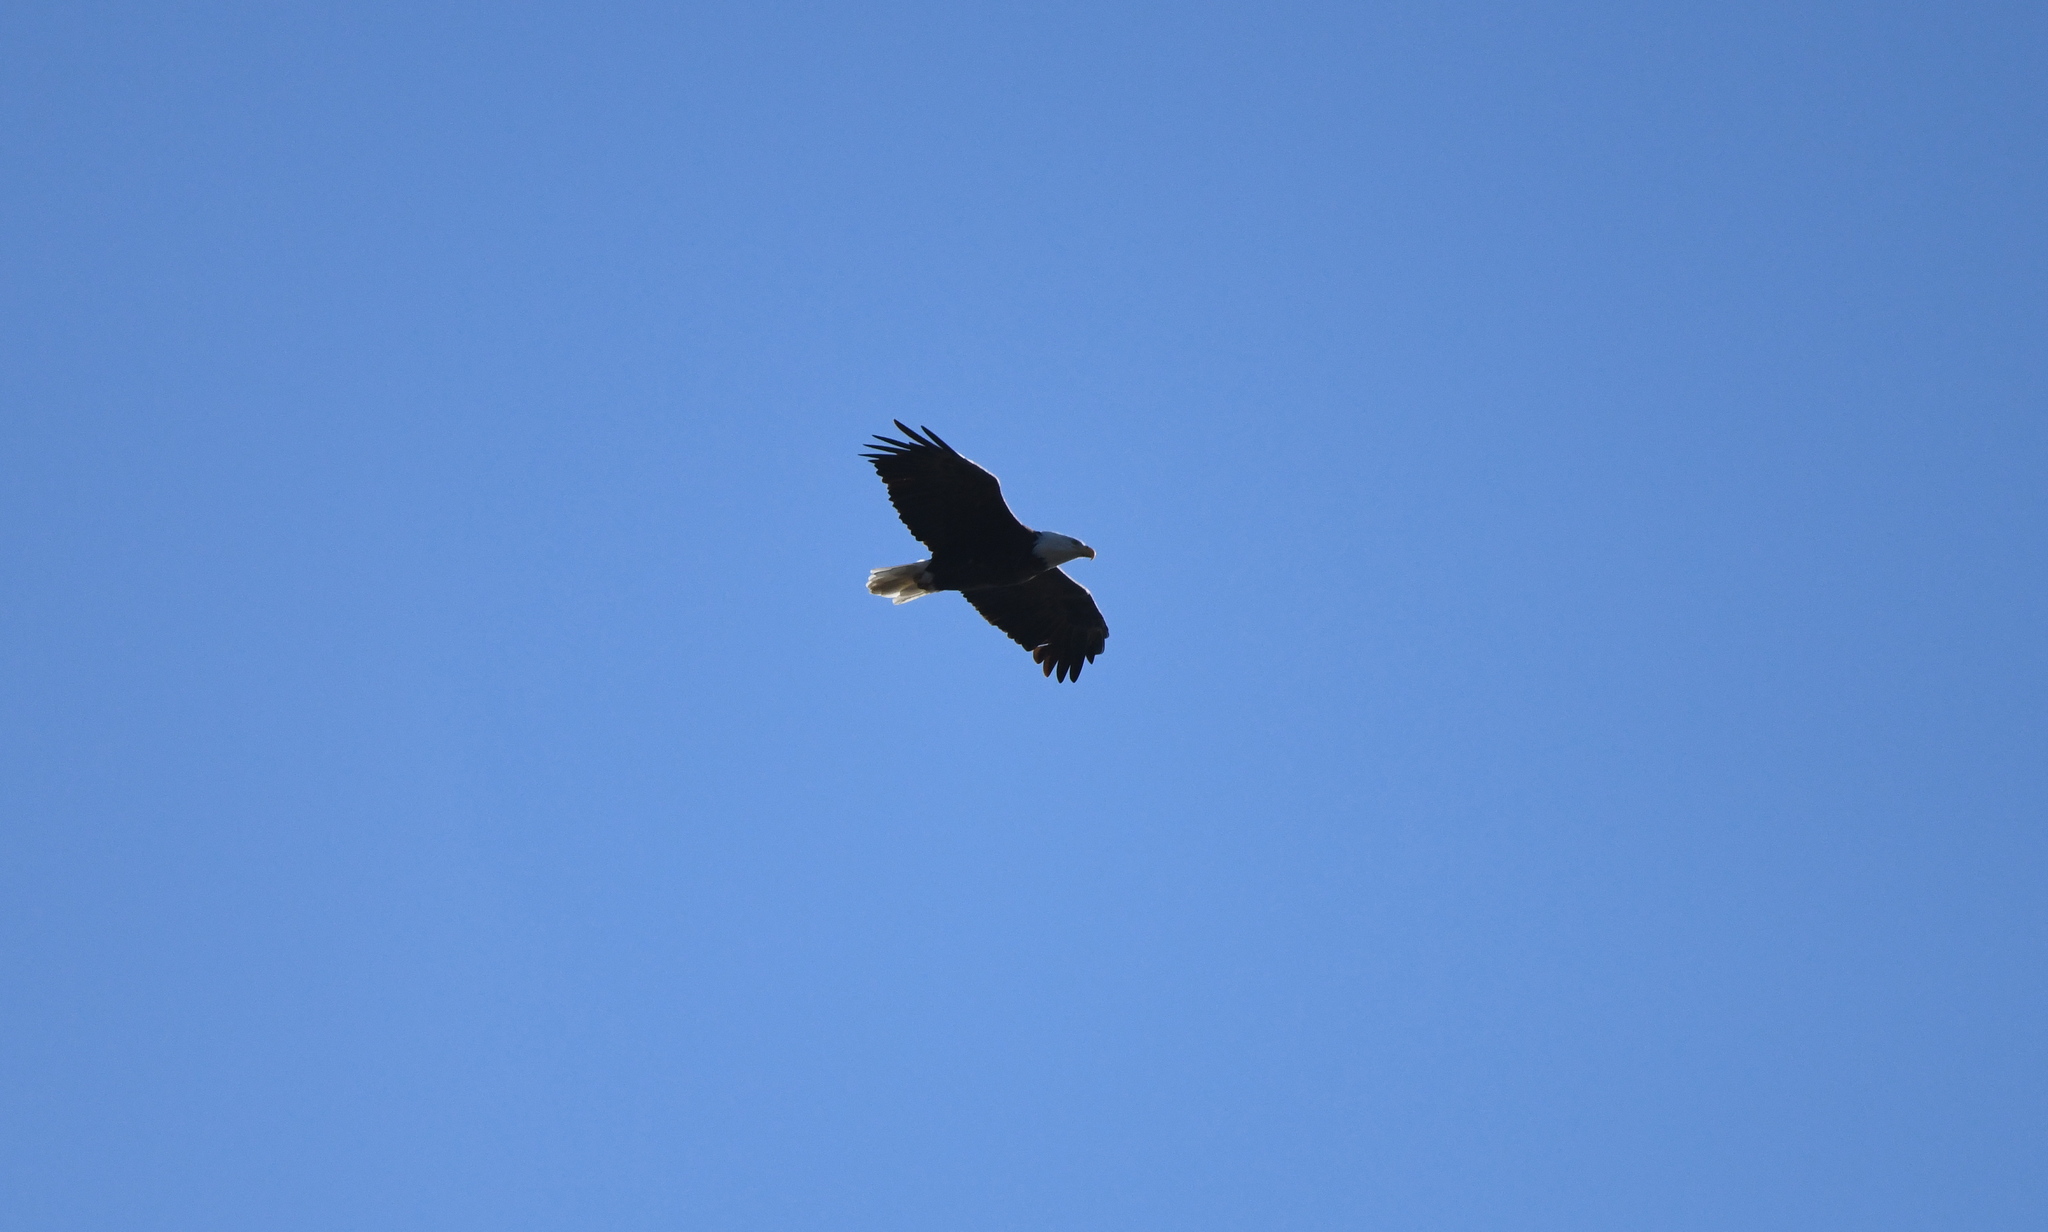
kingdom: Animalia
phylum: Chordata
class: Aves
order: Accipitriformes
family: Accipitridae
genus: Haliaeetus
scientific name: Haliaeetus leucocephalus
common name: Bald eagle
